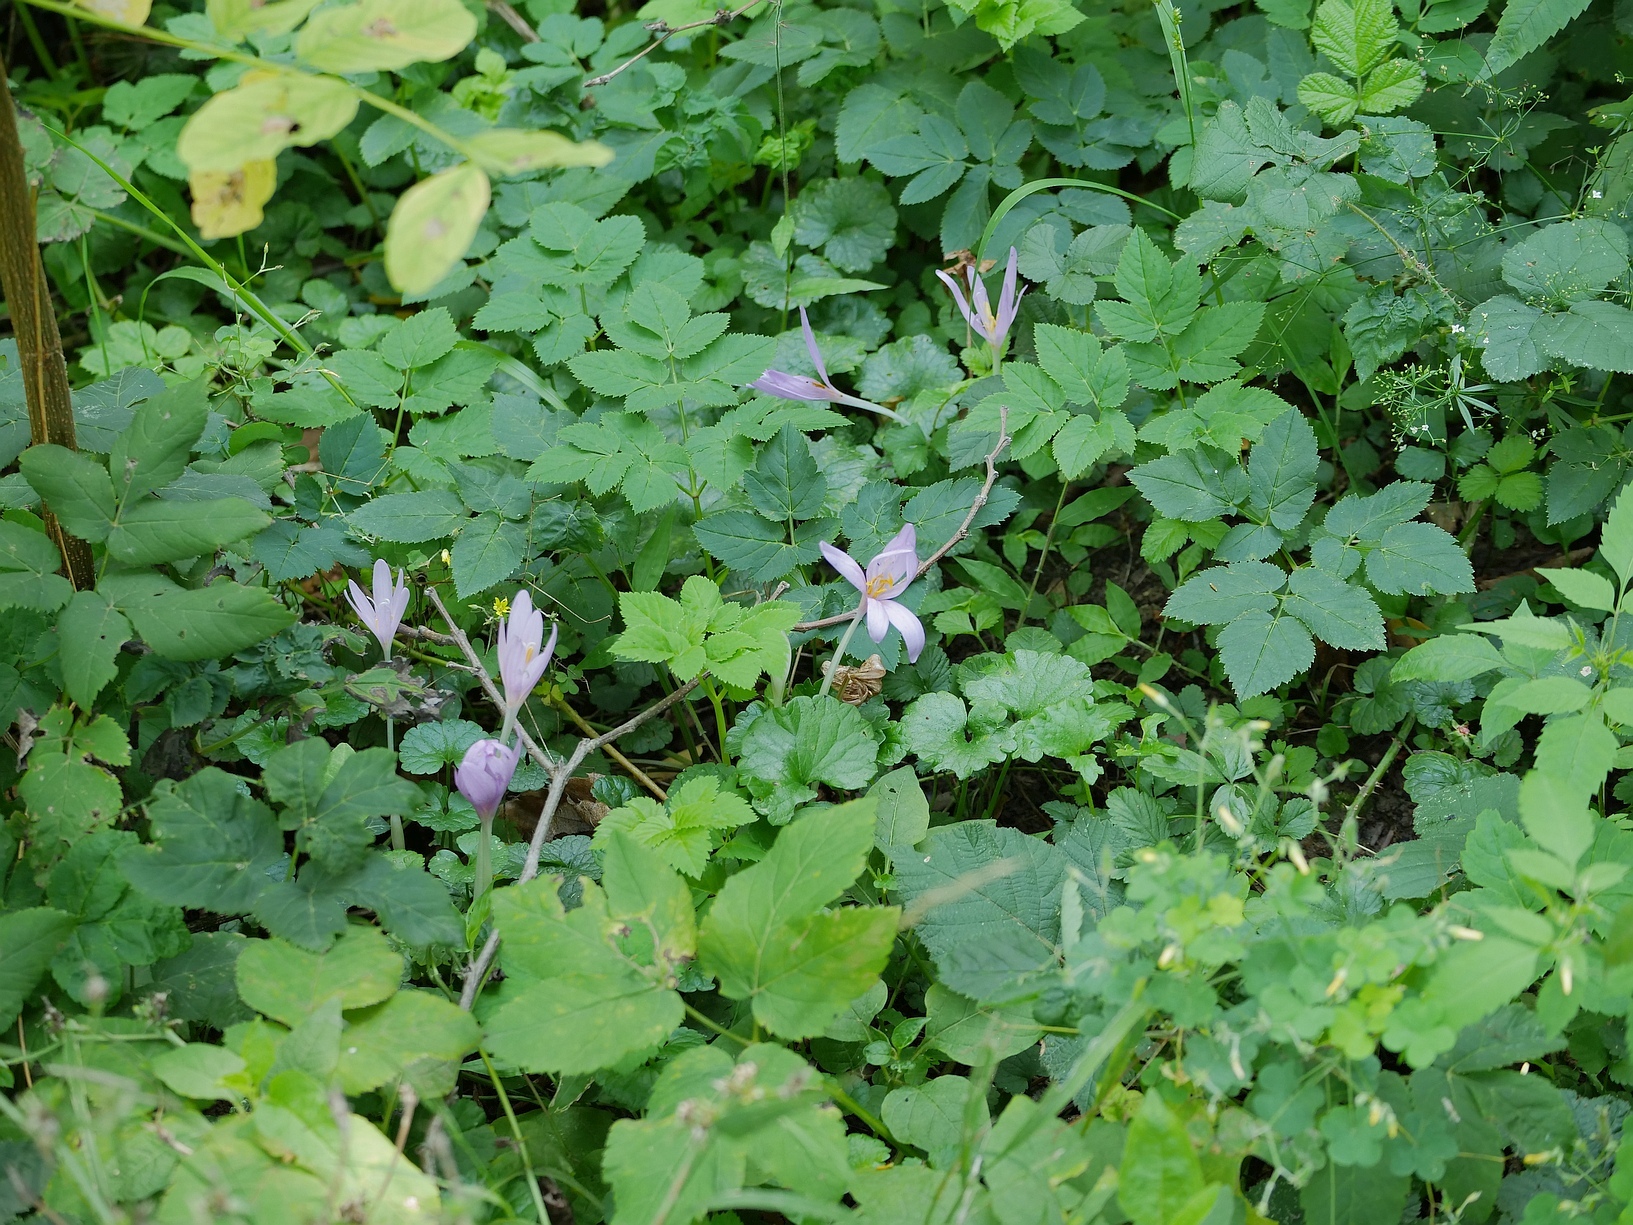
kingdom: Plantae
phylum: Tracheophyta
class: Liliopsida
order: Liliales
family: Colchicaceae
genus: Colchicum
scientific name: Colchicum autumnale
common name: Autumn crocus
